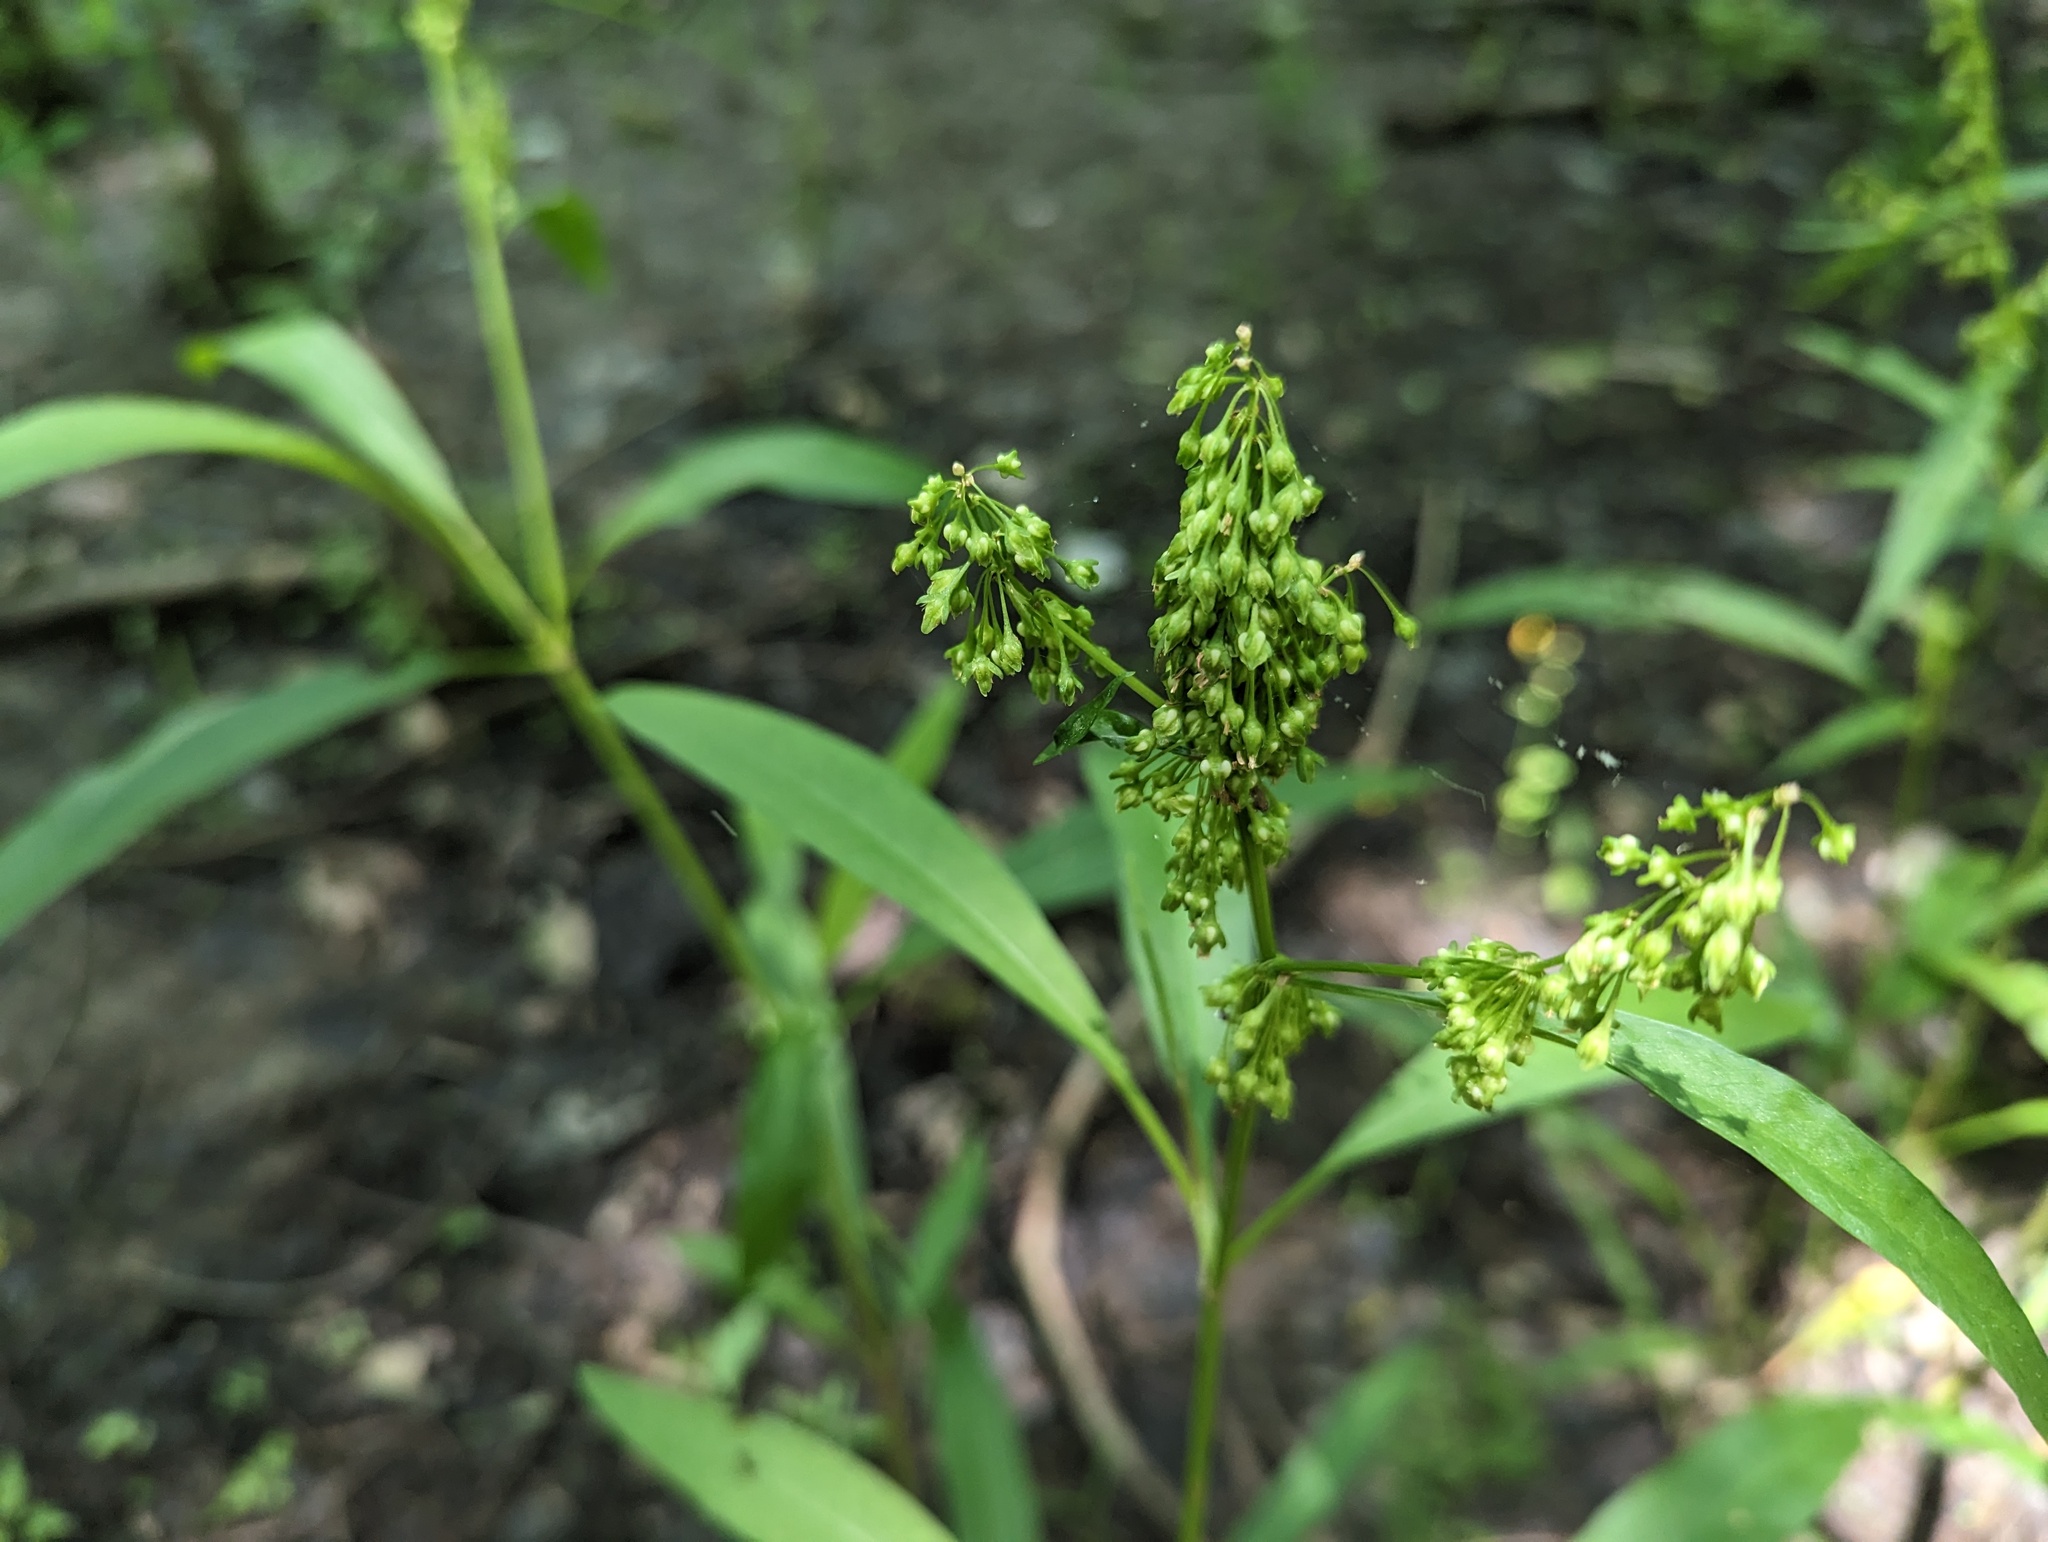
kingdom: Plantae
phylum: Tracheophyta
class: Magnoliopsida
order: Caryophyllales
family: Polygonaceae
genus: Rumex
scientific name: Rumex verticillatus
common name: Swamp dock
